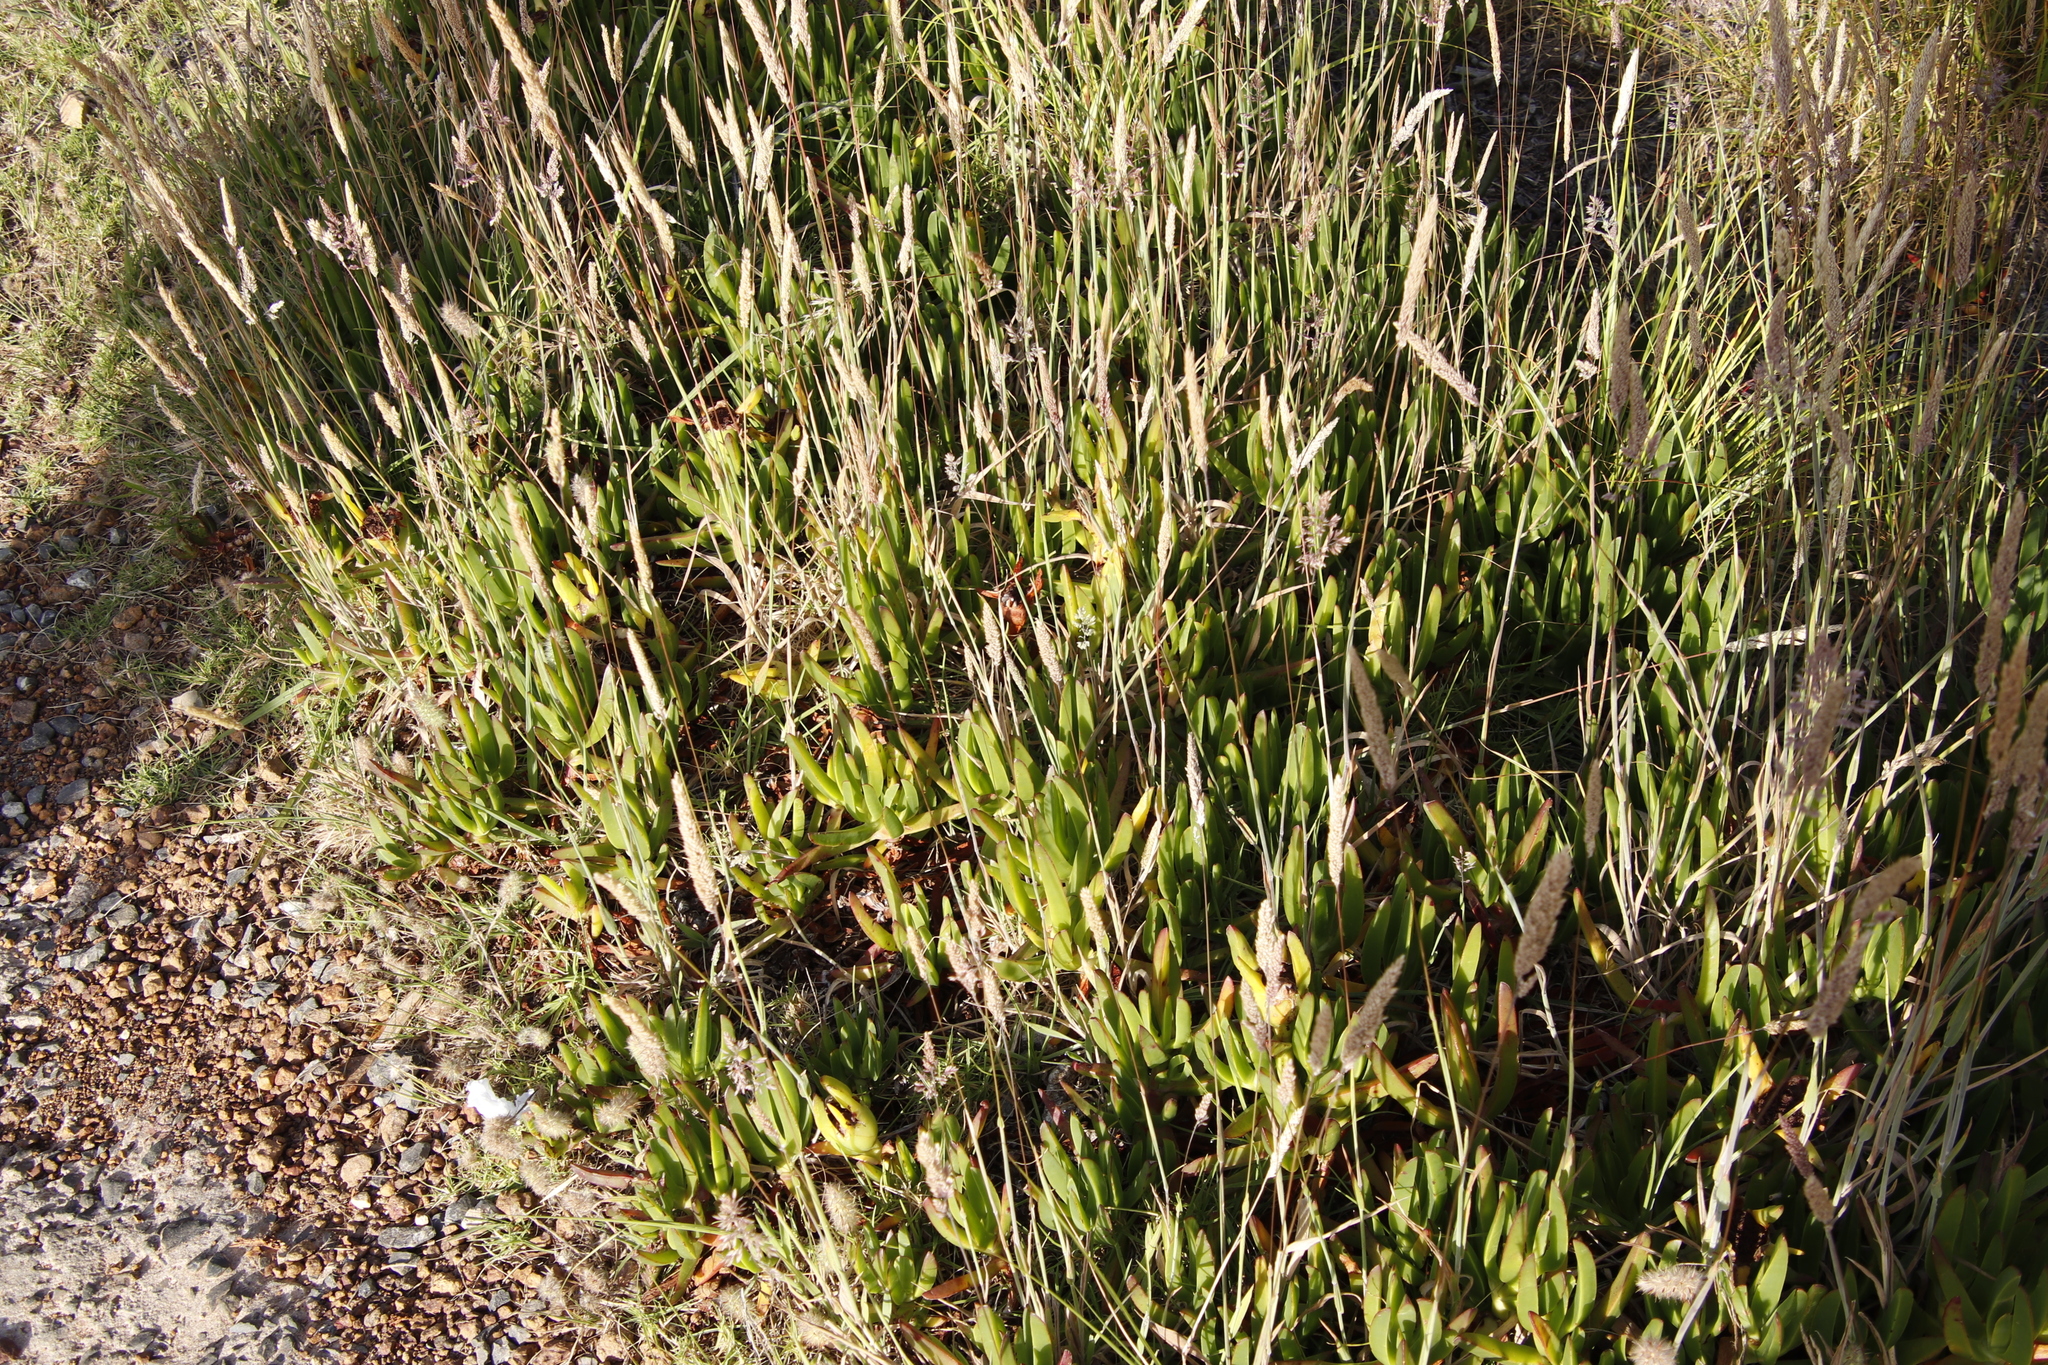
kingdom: Plantae
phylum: Tracheophyta
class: Magnoliopsida
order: Caryophyllales
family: Aizoaceae
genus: Carpobrotus
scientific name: Carpobrotus edulis
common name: Hottentot-fig
